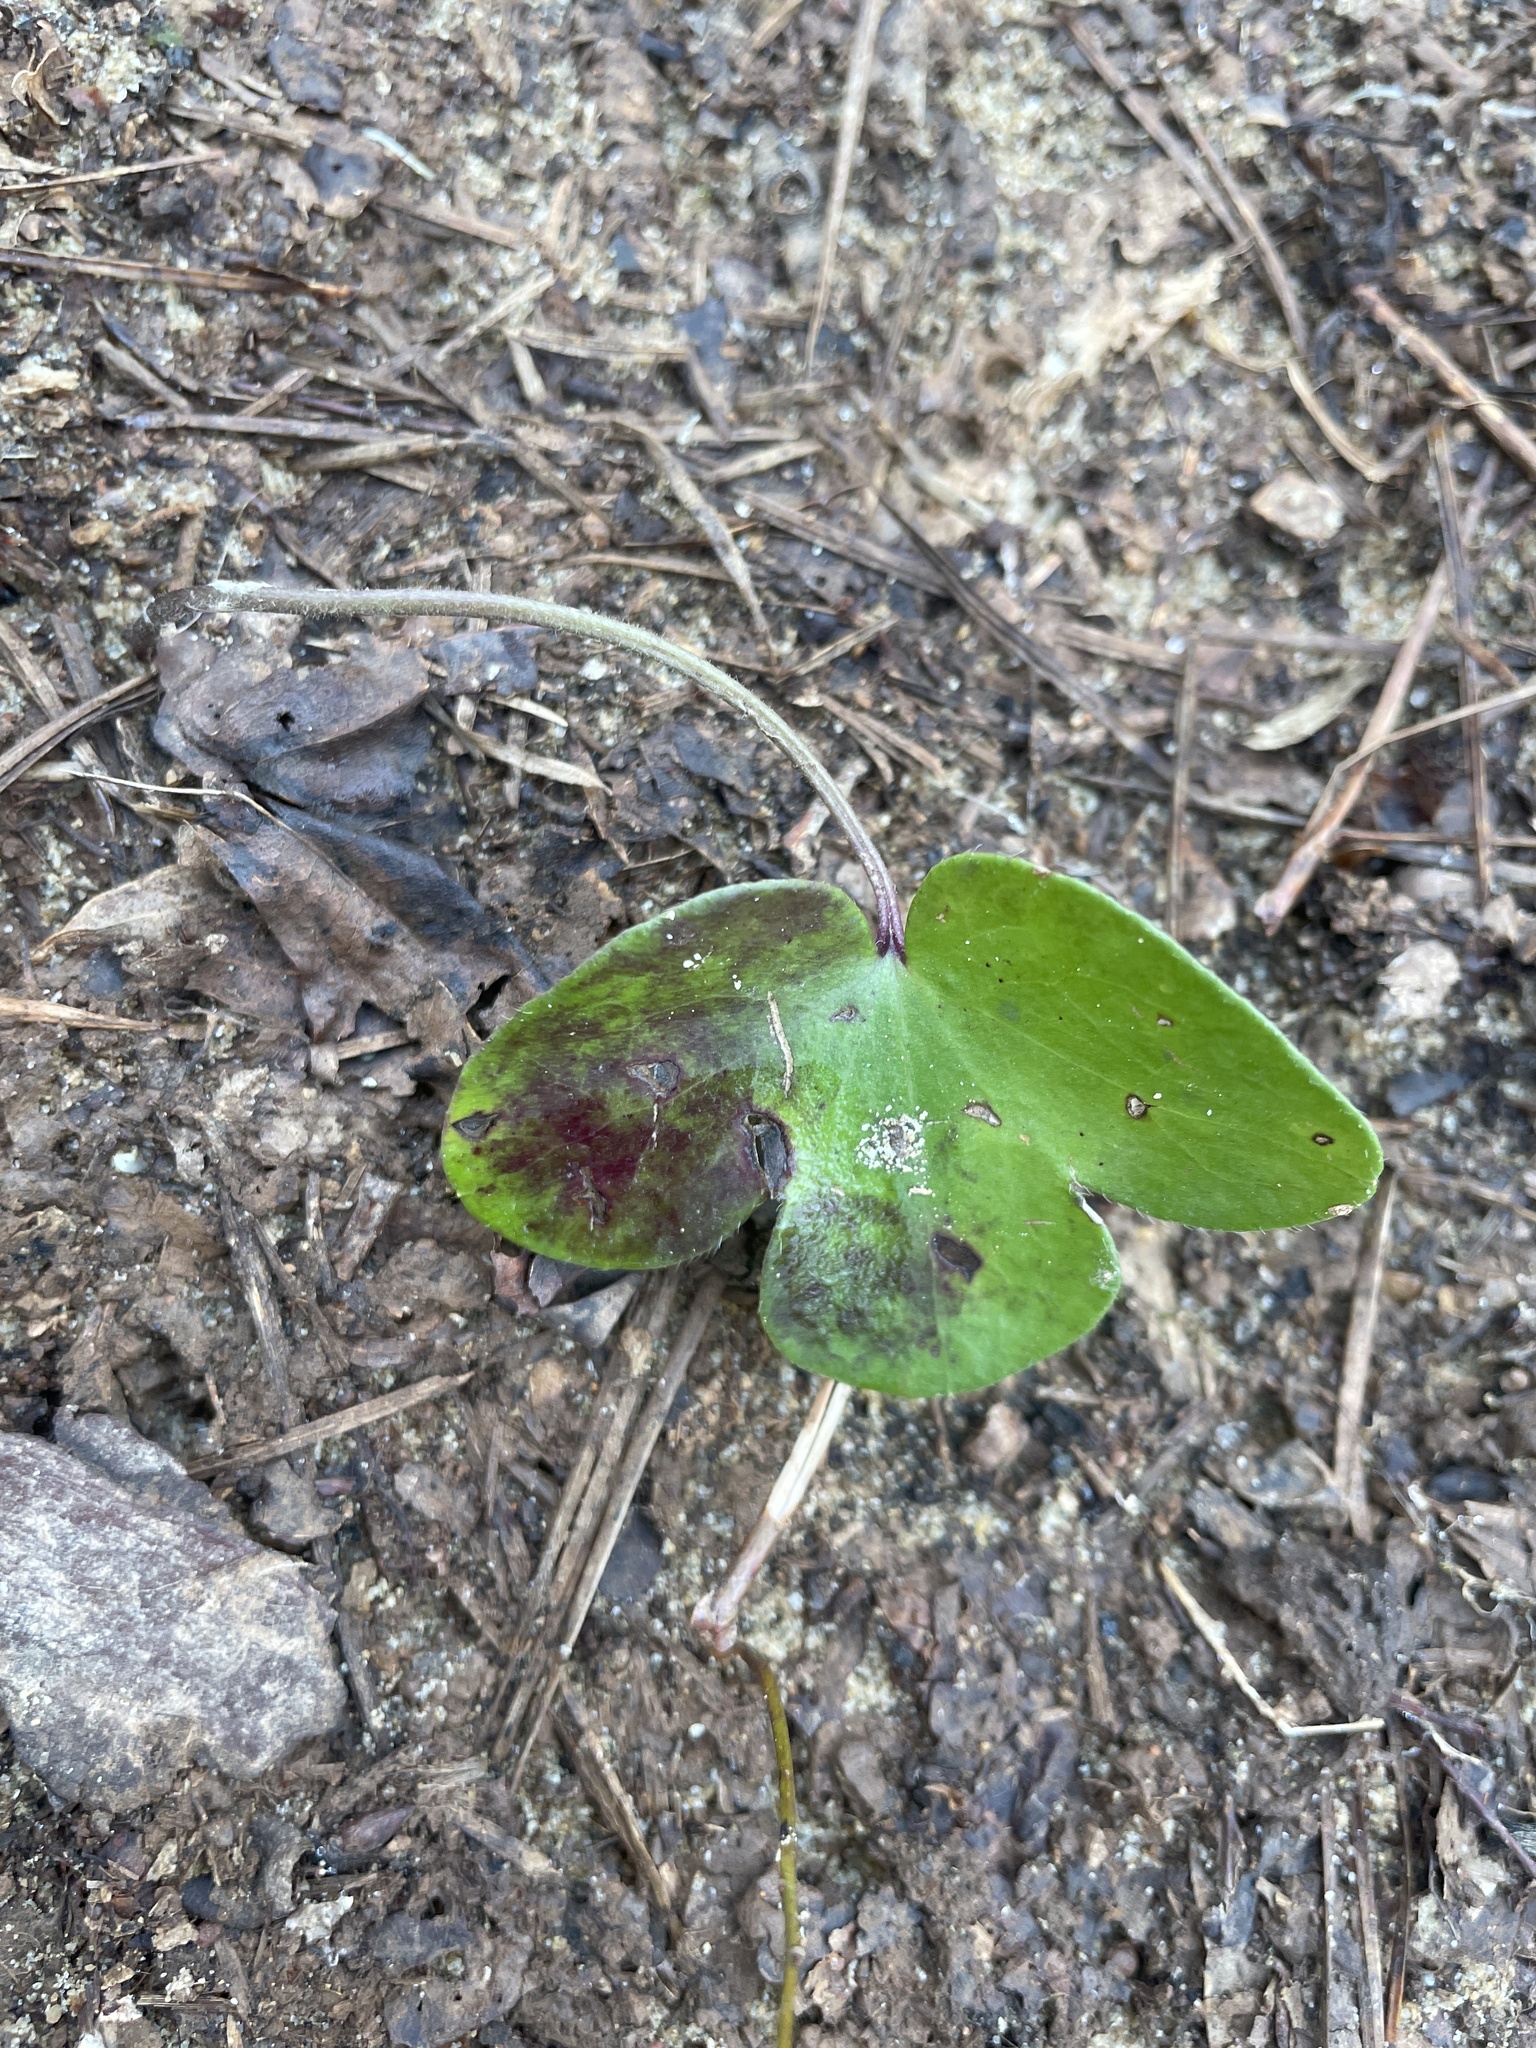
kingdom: Plantae
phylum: Tracheophyta
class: Magnoliopsida
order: Ranunculales
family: Ranunculaceae
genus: Hepatica
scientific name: Hepatica americana
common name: American hepatica
